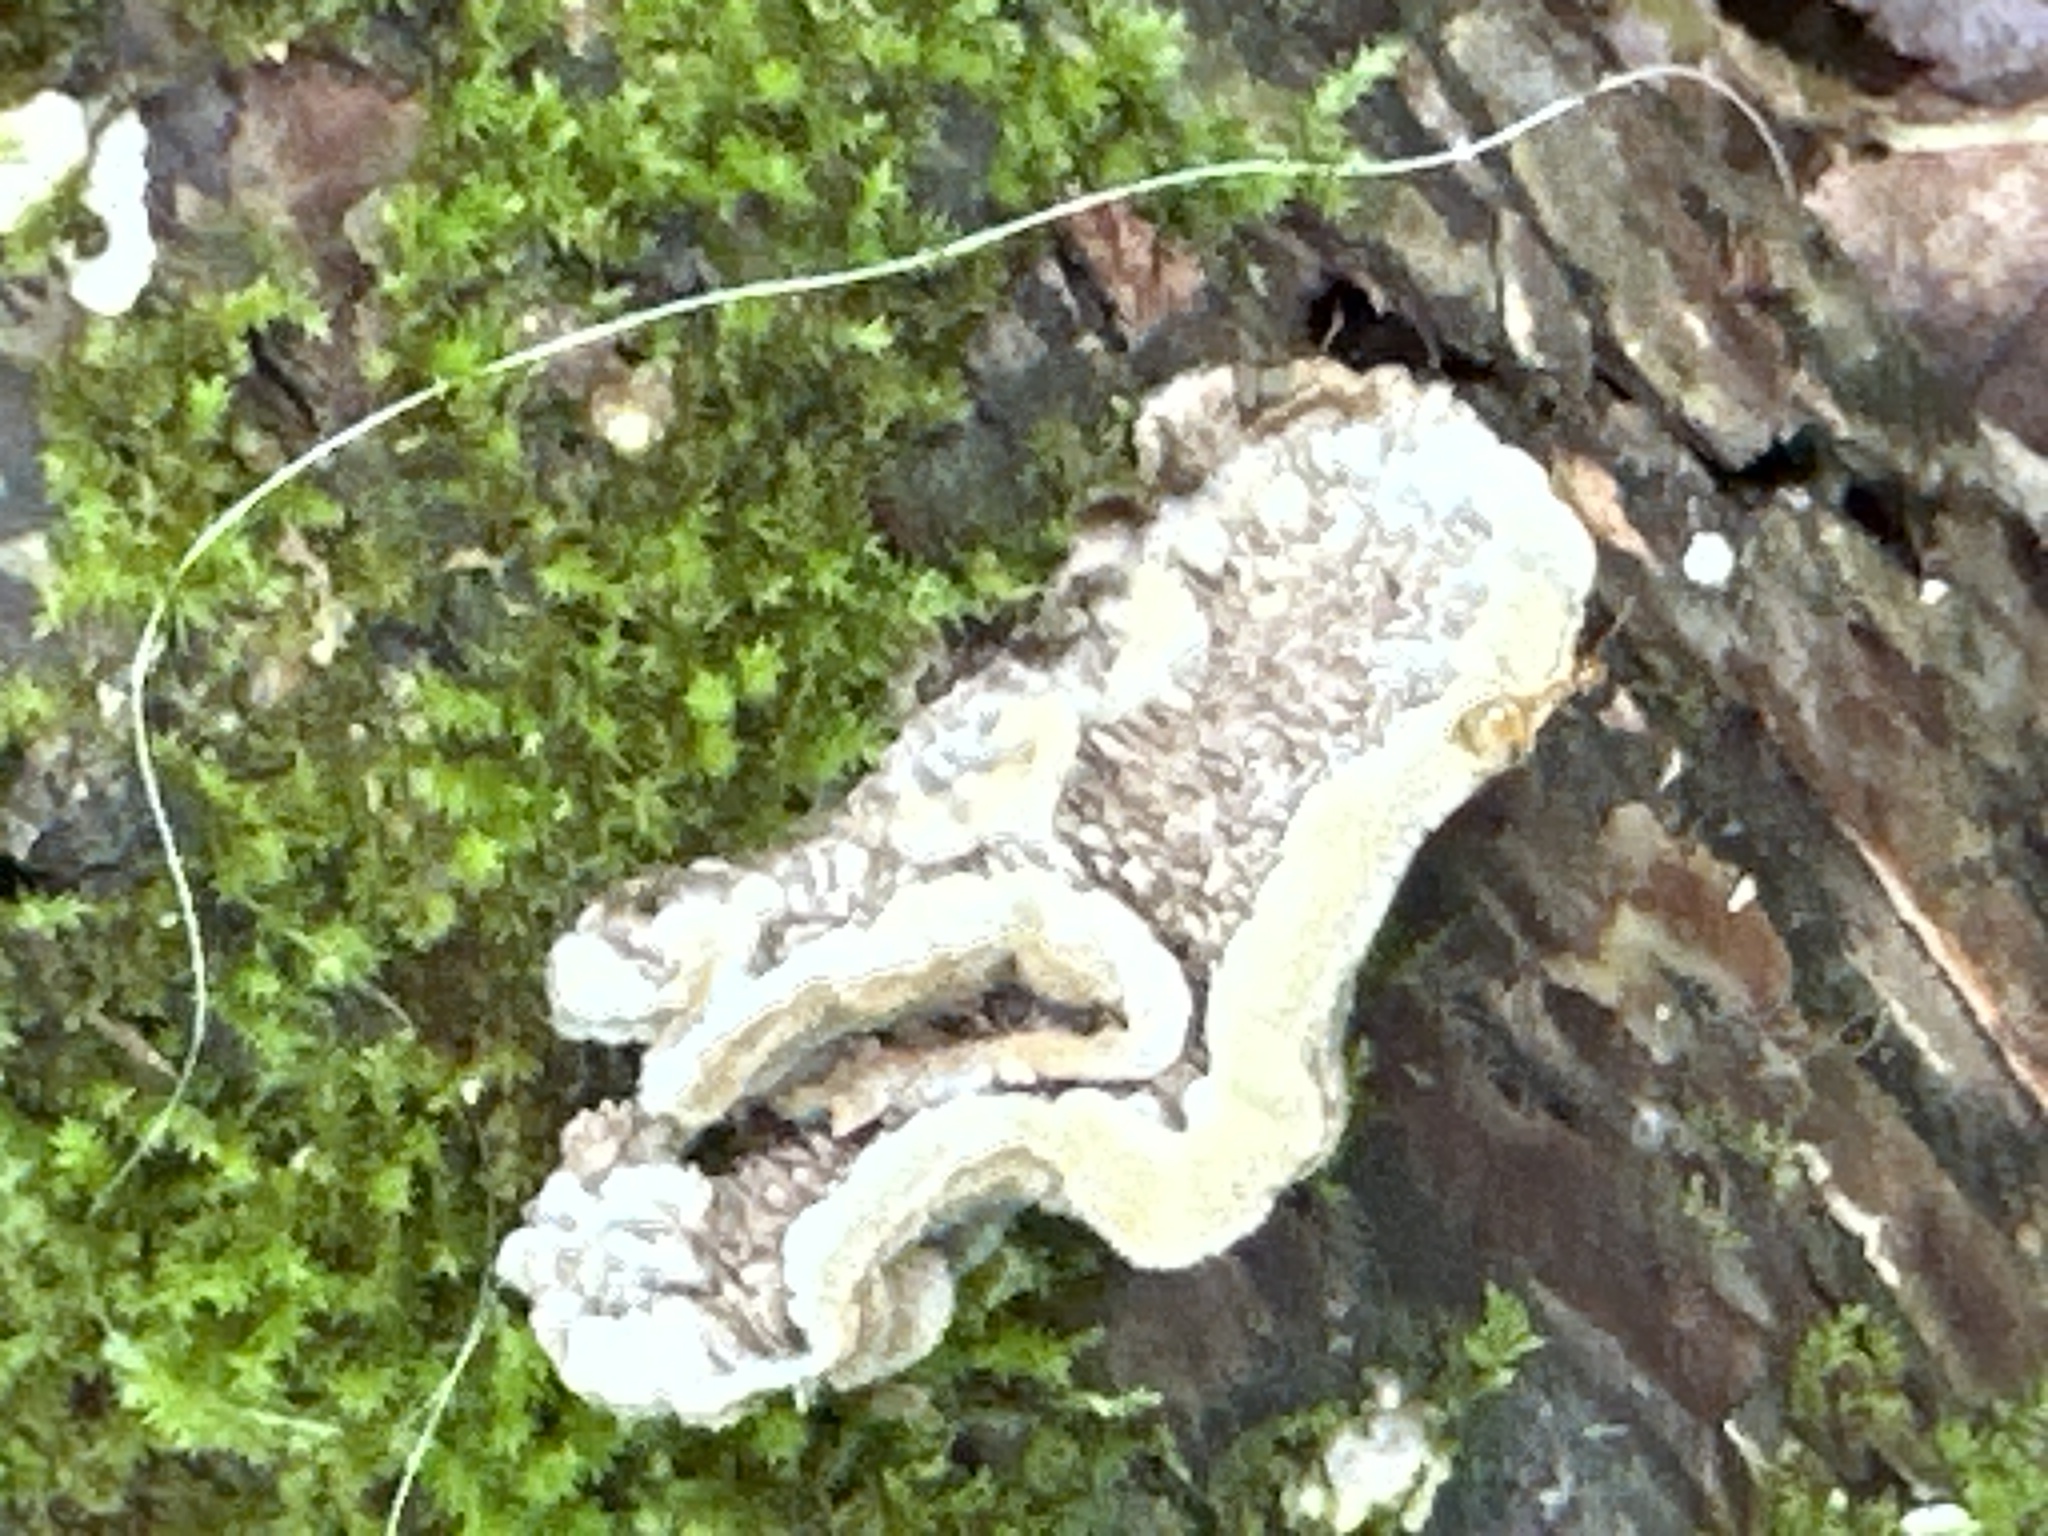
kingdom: Fungi
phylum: Basidiomycota
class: Agaricomycetes
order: Polyporales
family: Cerrenaceae
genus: Cerrena
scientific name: Cerrena unicolor
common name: Mossy maze polypore
